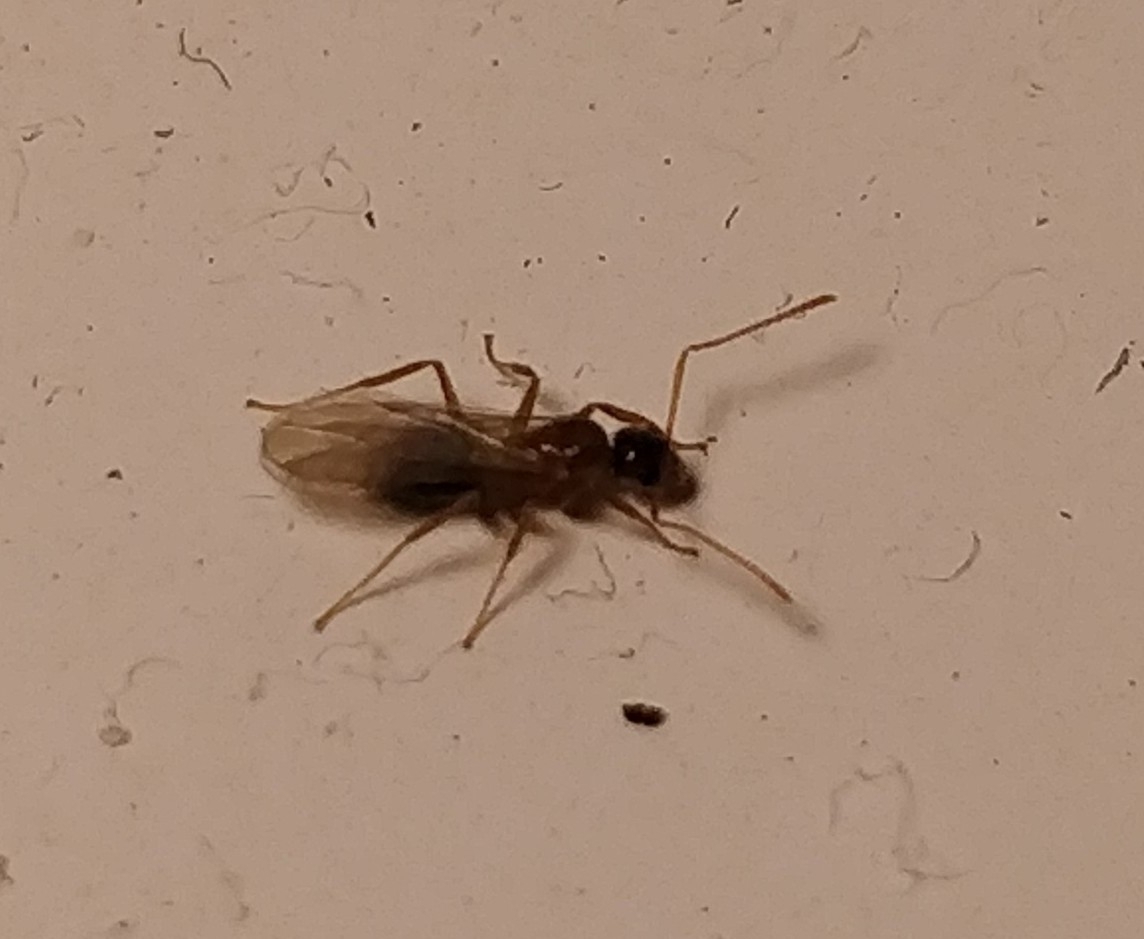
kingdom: Animalia
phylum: Arthropoda
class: Insecta
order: Hymenoptera
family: Formicidae
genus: Paratrechina
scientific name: Paratrechina jaegerskioeldi
